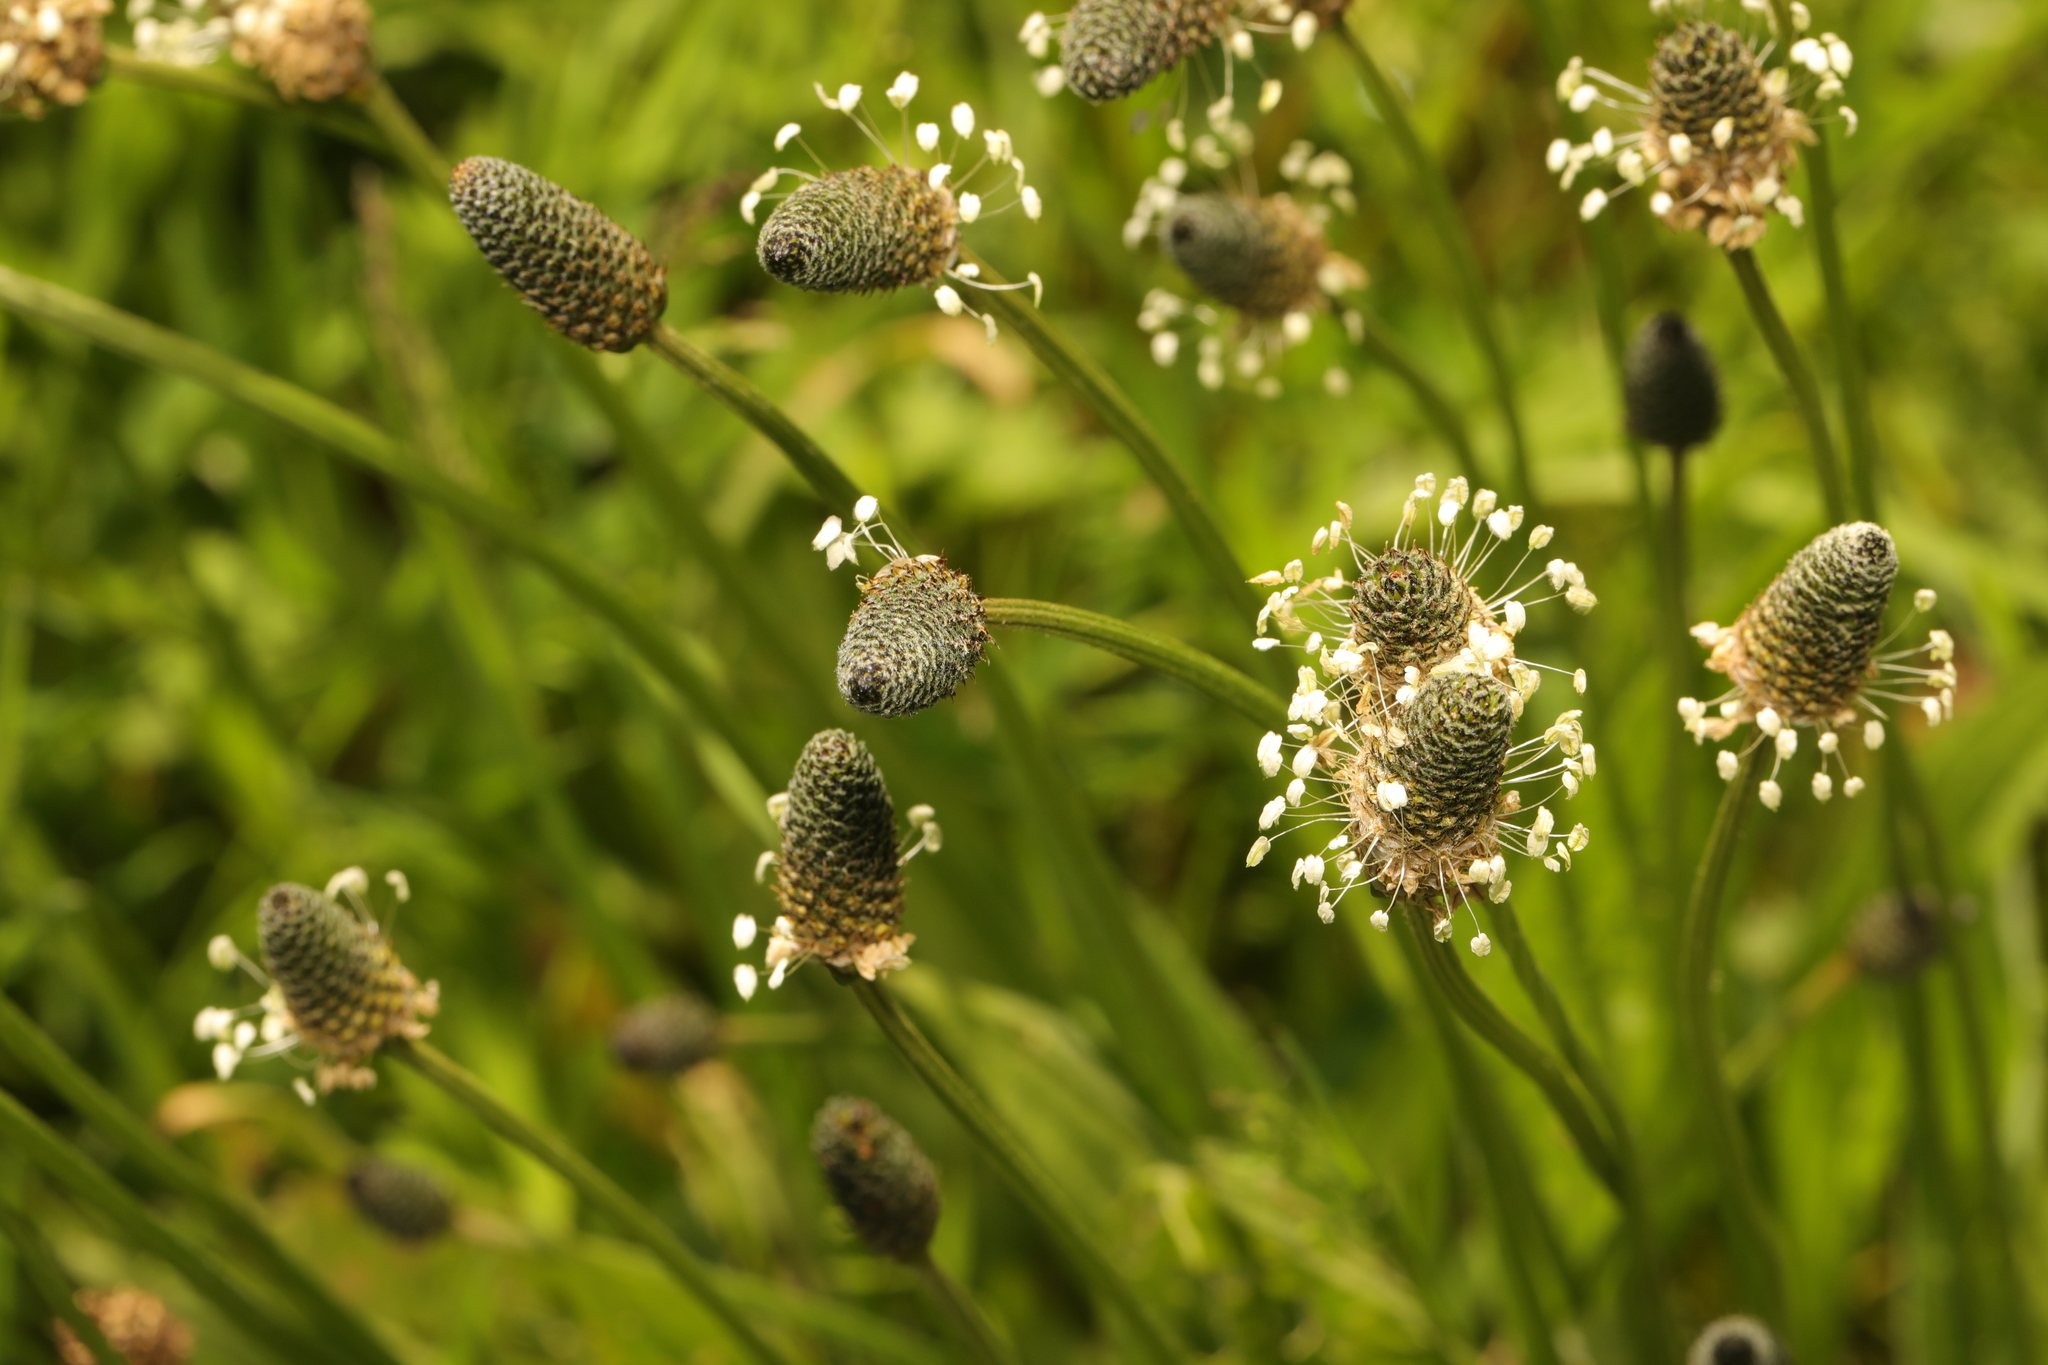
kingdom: Plantae
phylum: Tracheophyta
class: Magnoliopsida
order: Lamiales
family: Plantaginaceae
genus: Plantago
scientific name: Plantago lanceolata
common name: Ribwort plantain
